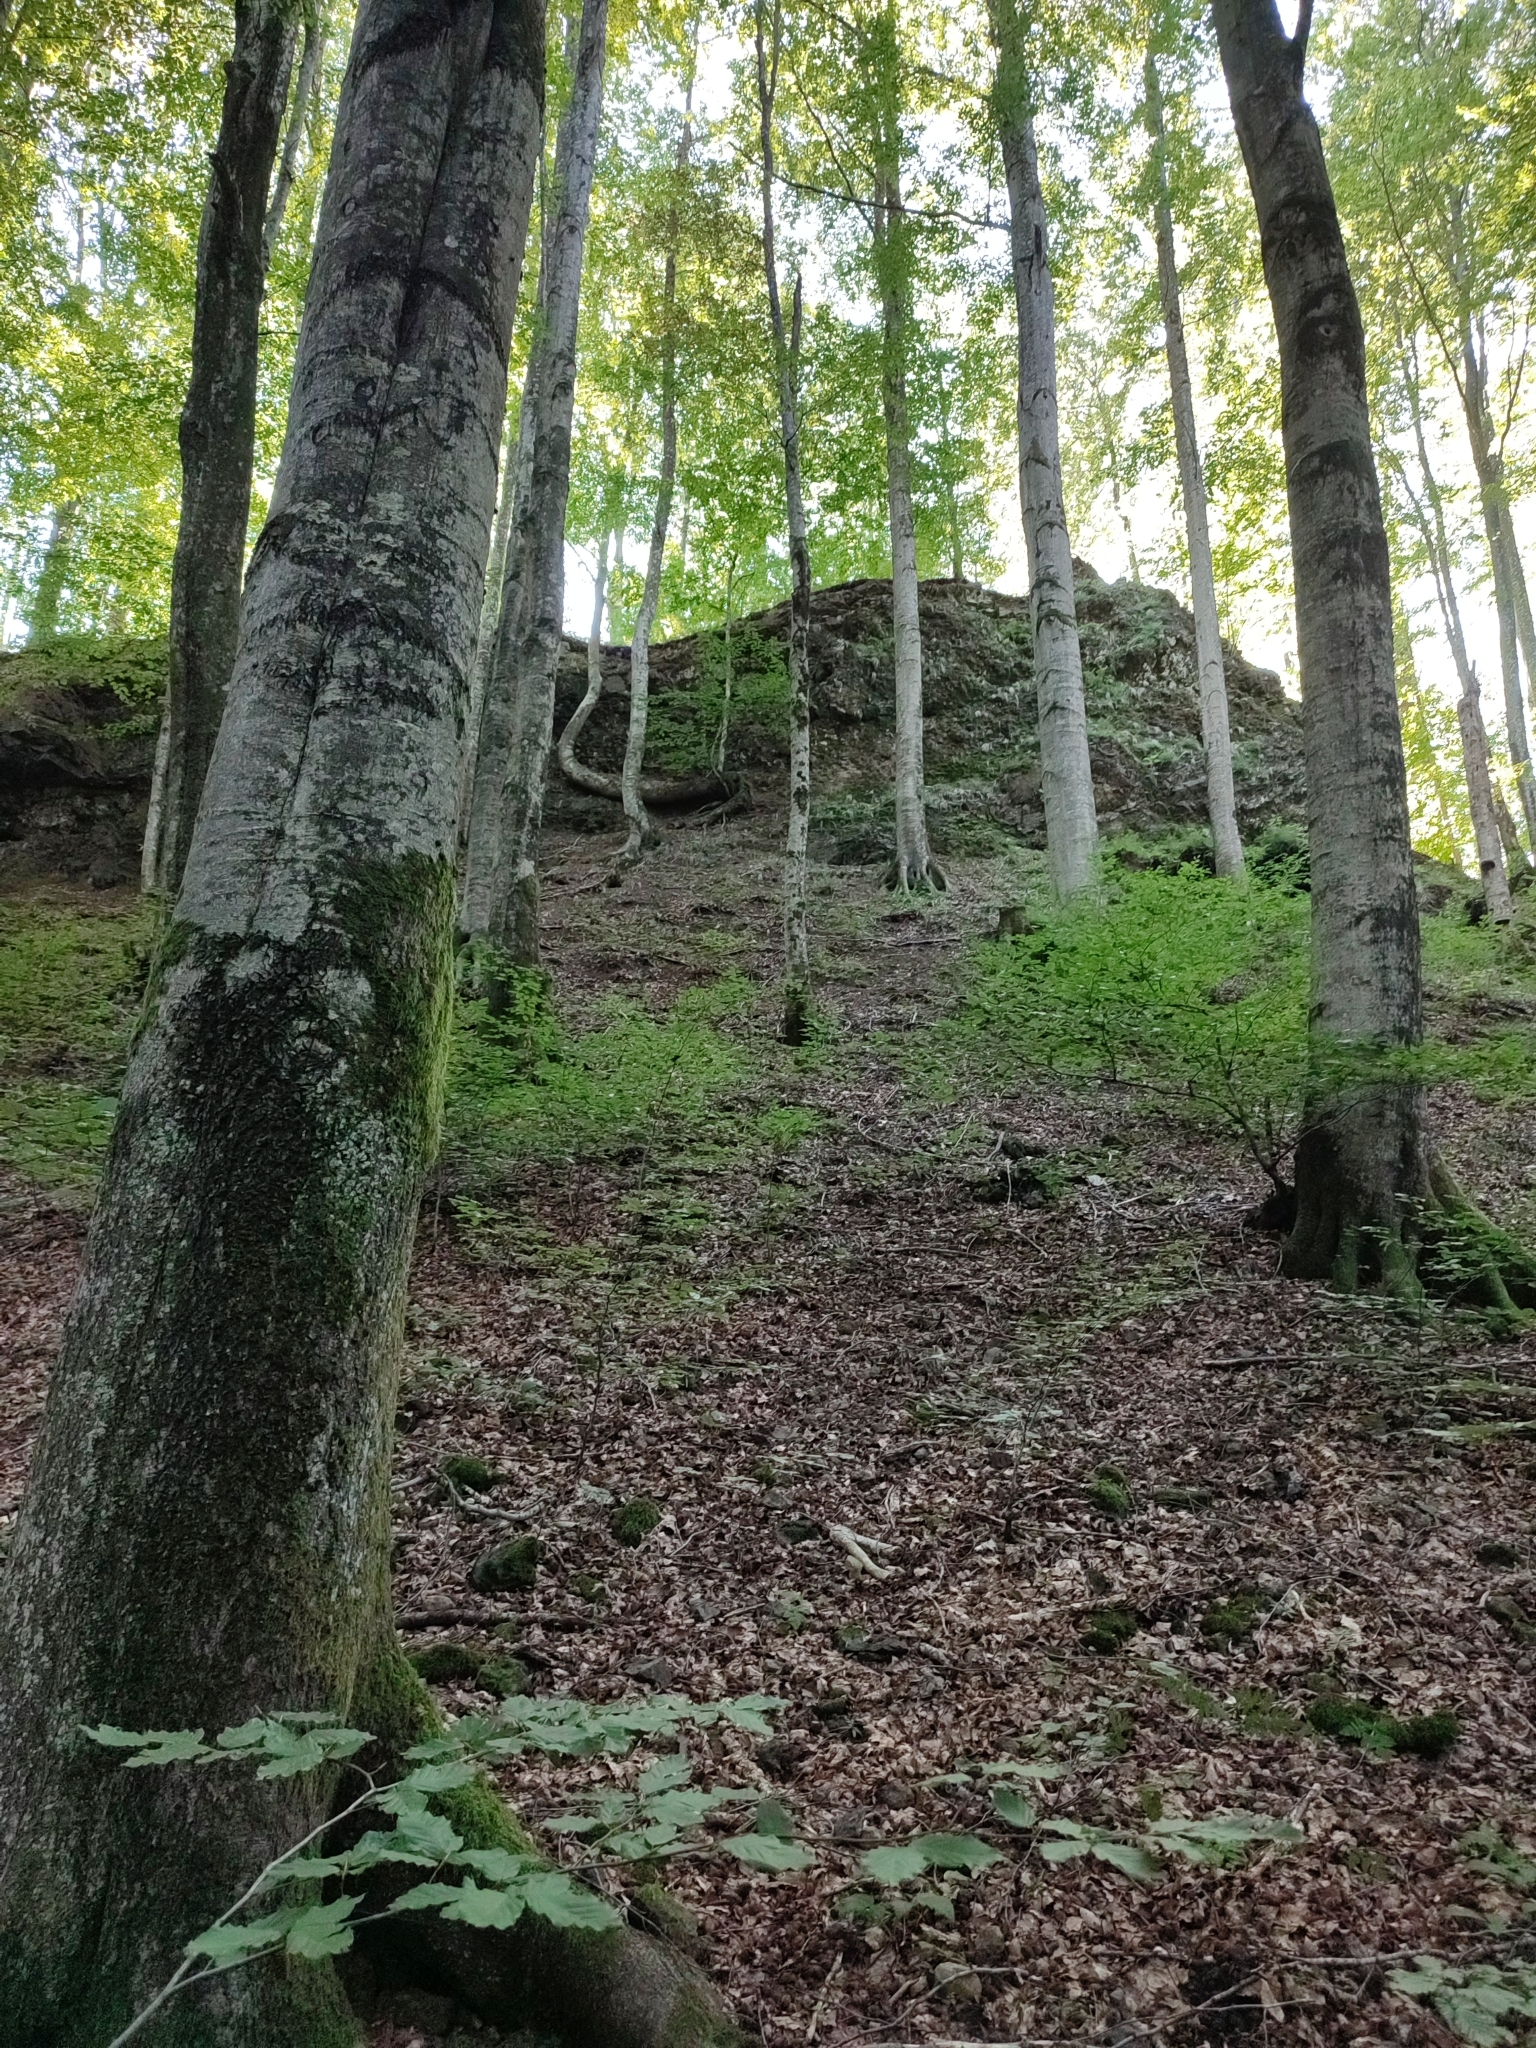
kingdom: Plantae
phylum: Tracheophyta
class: Magnoliopsida
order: Fagales
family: Fagaceae
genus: Fagus
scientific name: Fagus sylvatica
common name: Beech
